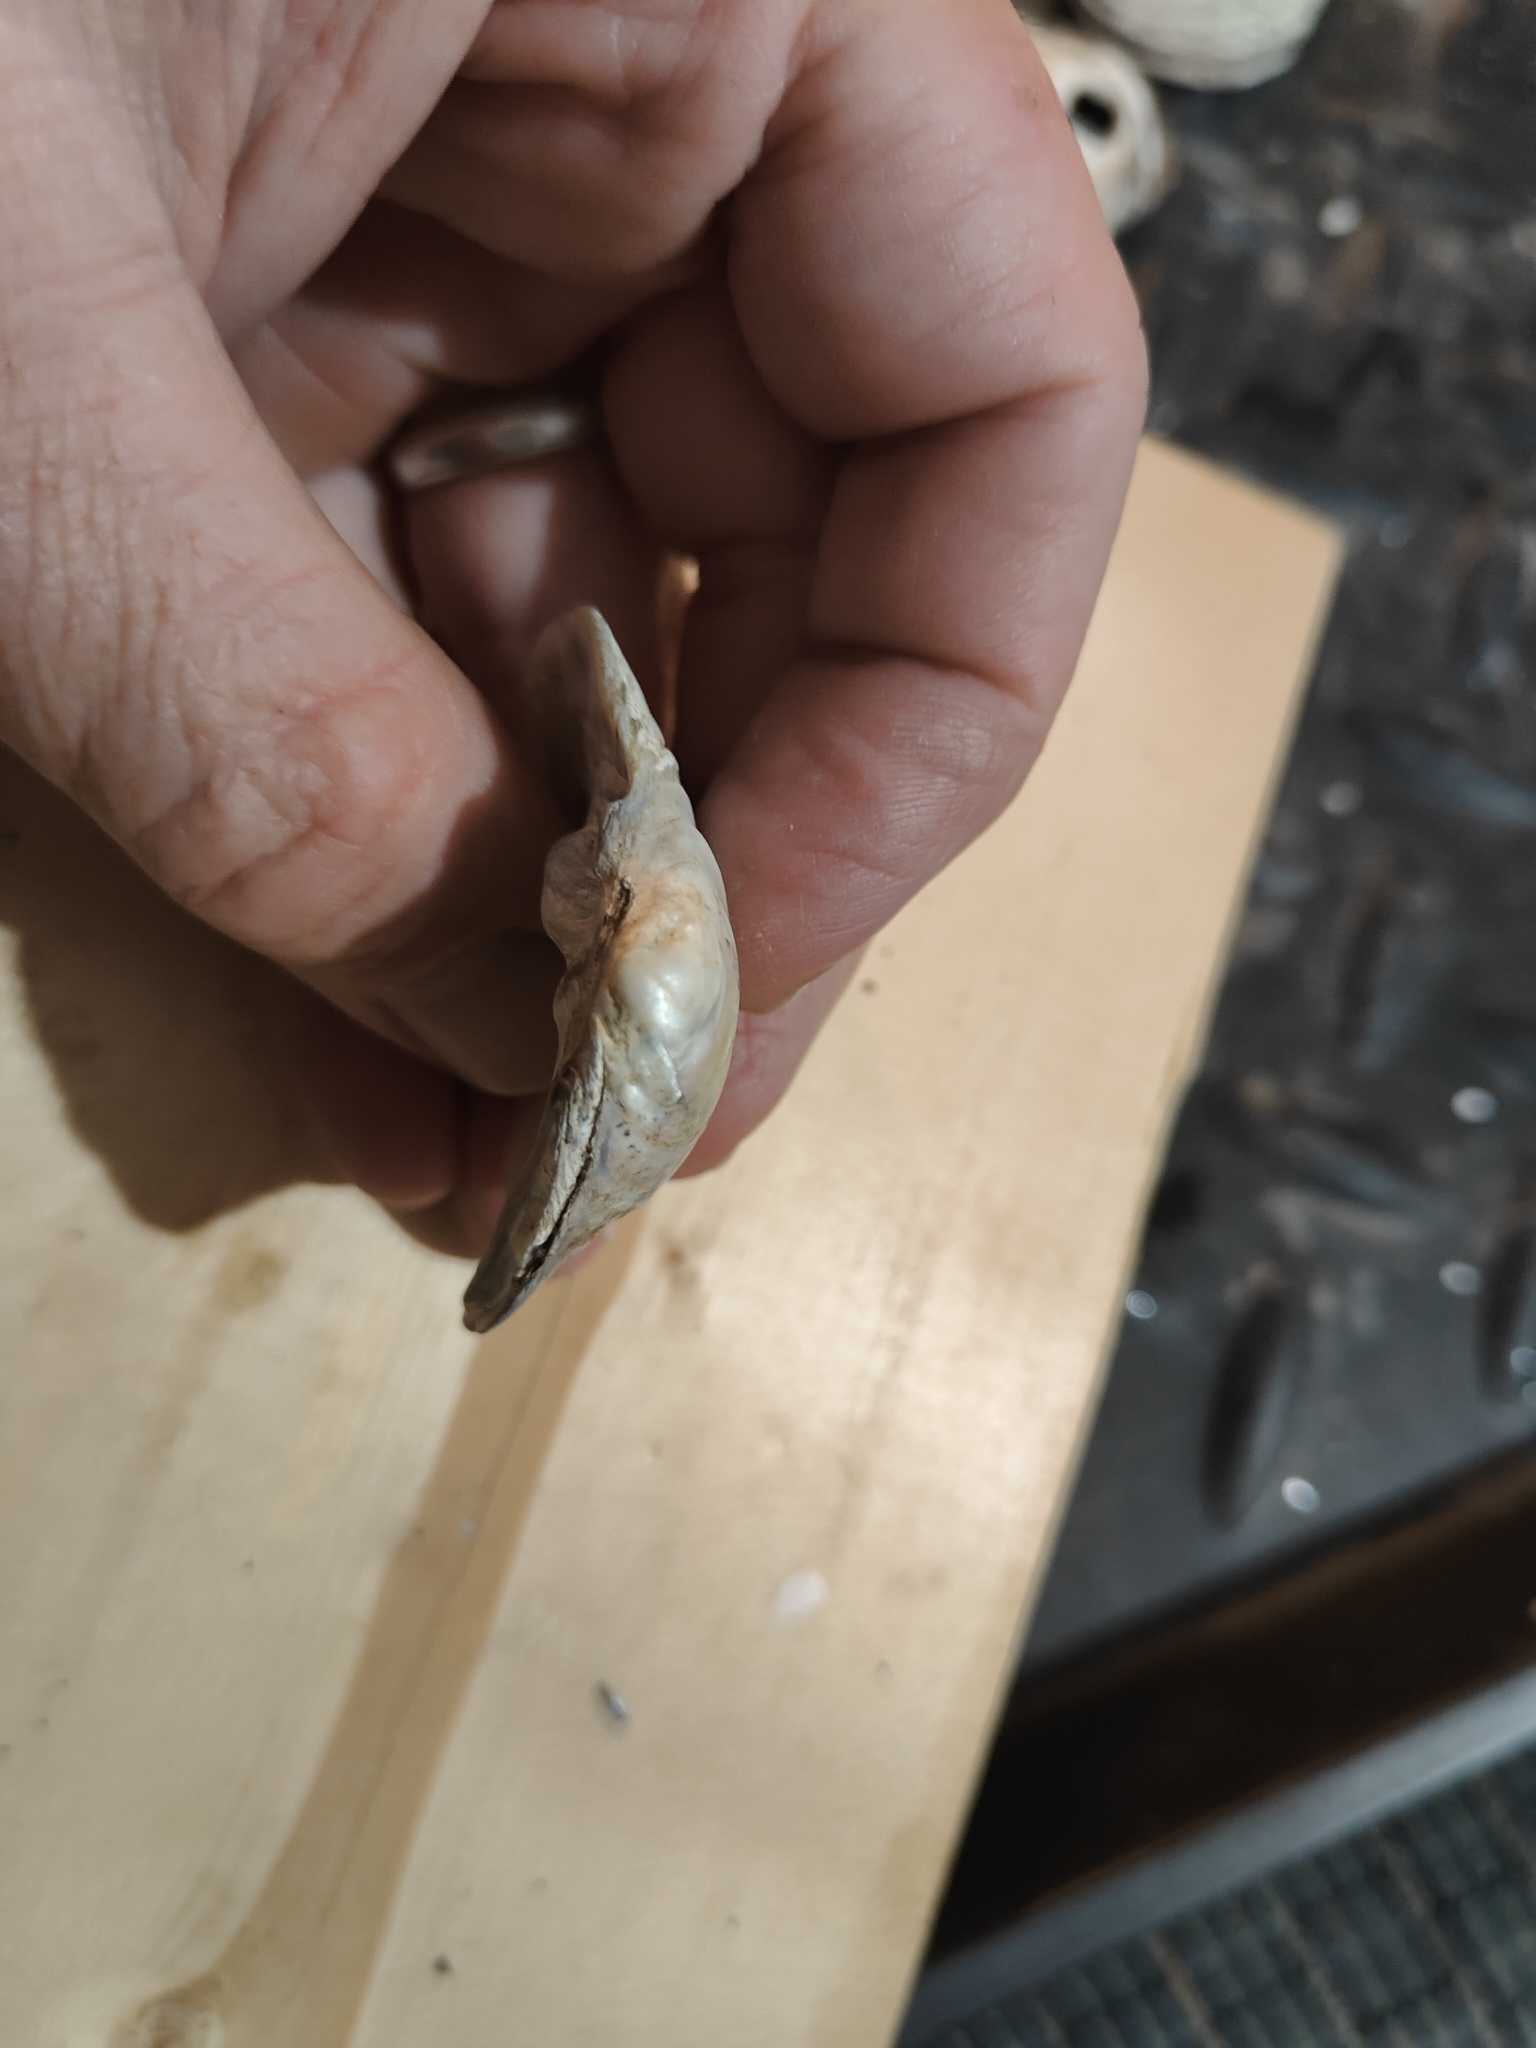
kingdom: Animalia
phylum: Mollusca
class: Bivalvia
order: Unionida
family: Unionidae
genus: Cyclonaias
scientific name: Cyclonaias pustulosa
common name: Pimpleback
